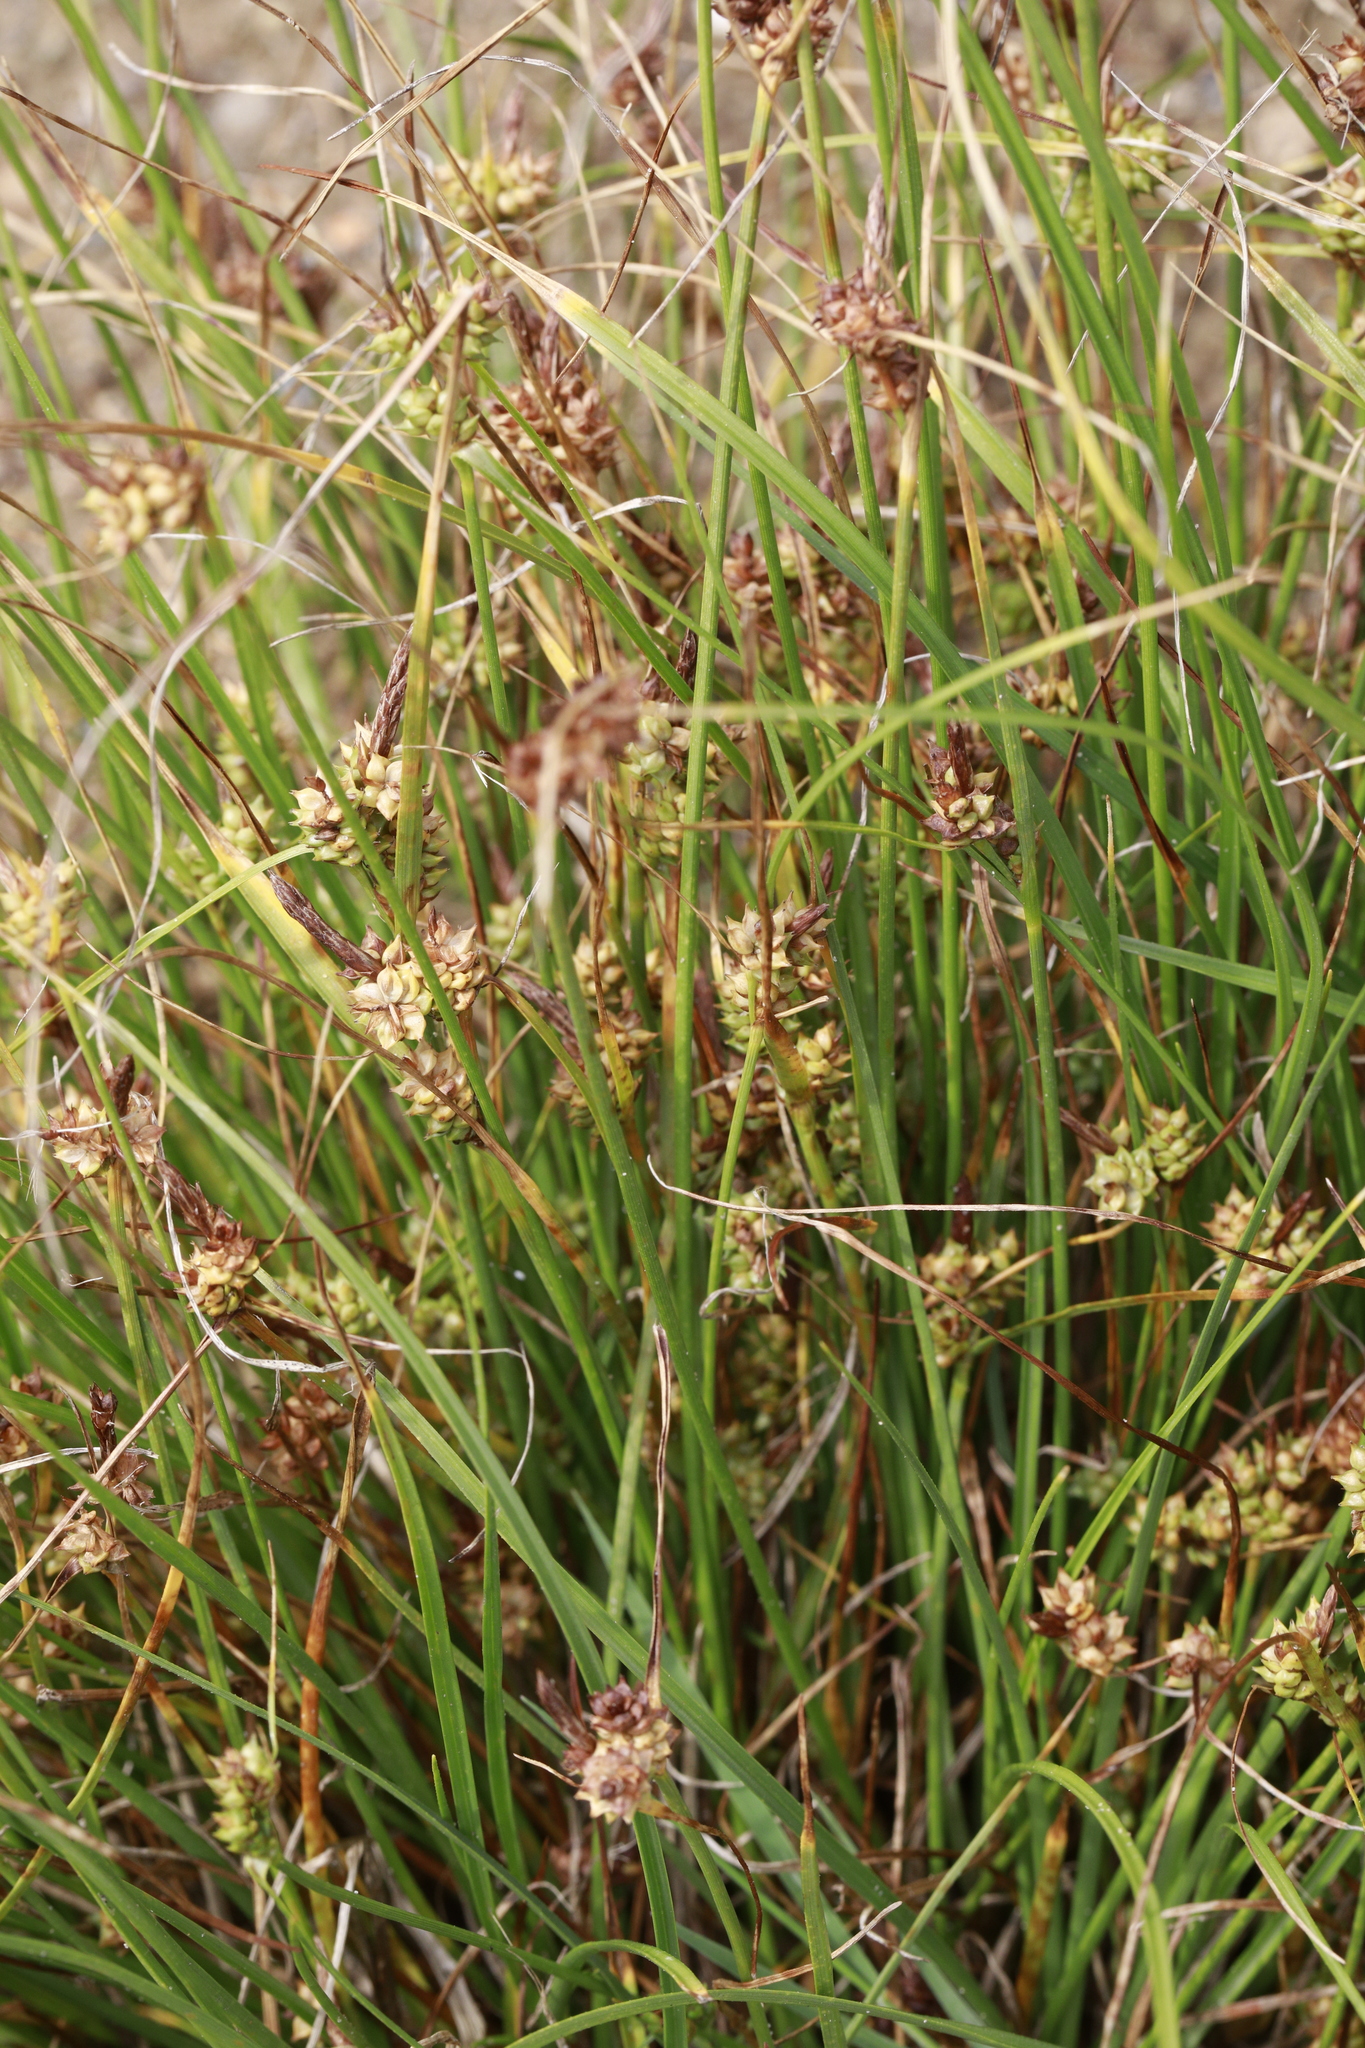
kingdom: Plantae
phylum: Tracheophyta
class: Liliopsida
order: Poales
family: Cyperaceae
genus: Carex
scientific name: Carex extensa
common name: Long-bracted sedge
